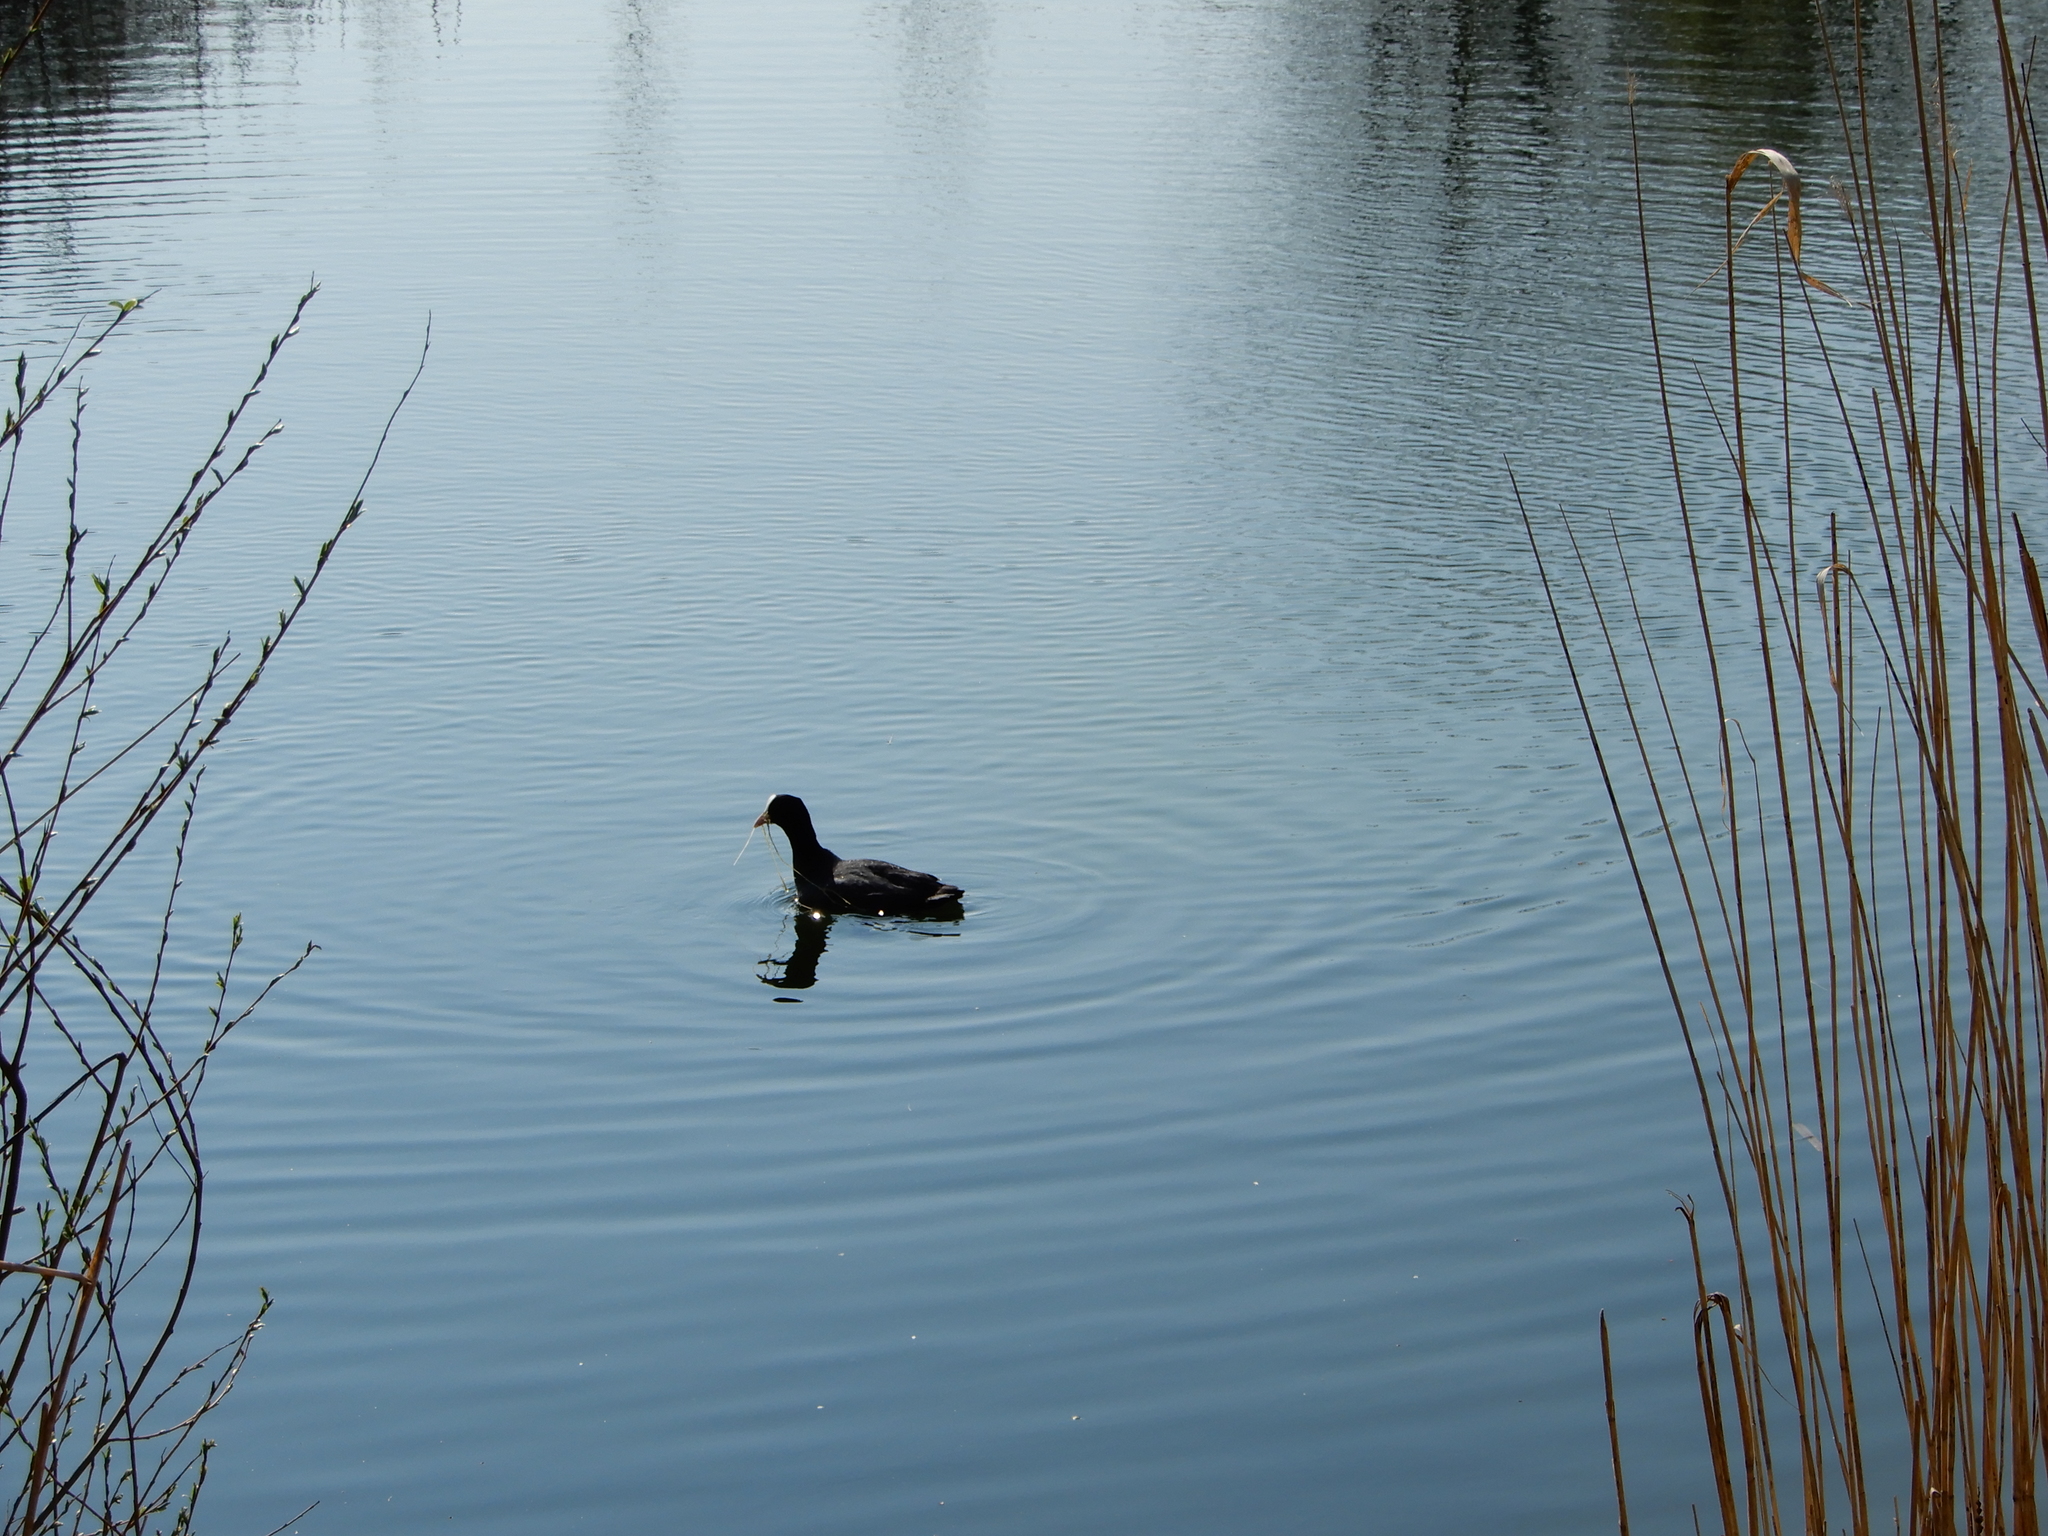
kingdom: Animalia
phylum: Chordata
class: Aves
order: Gruiformes
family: Rallidae
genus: Fulica
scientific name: Fulica atra
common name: Eurasian coot
